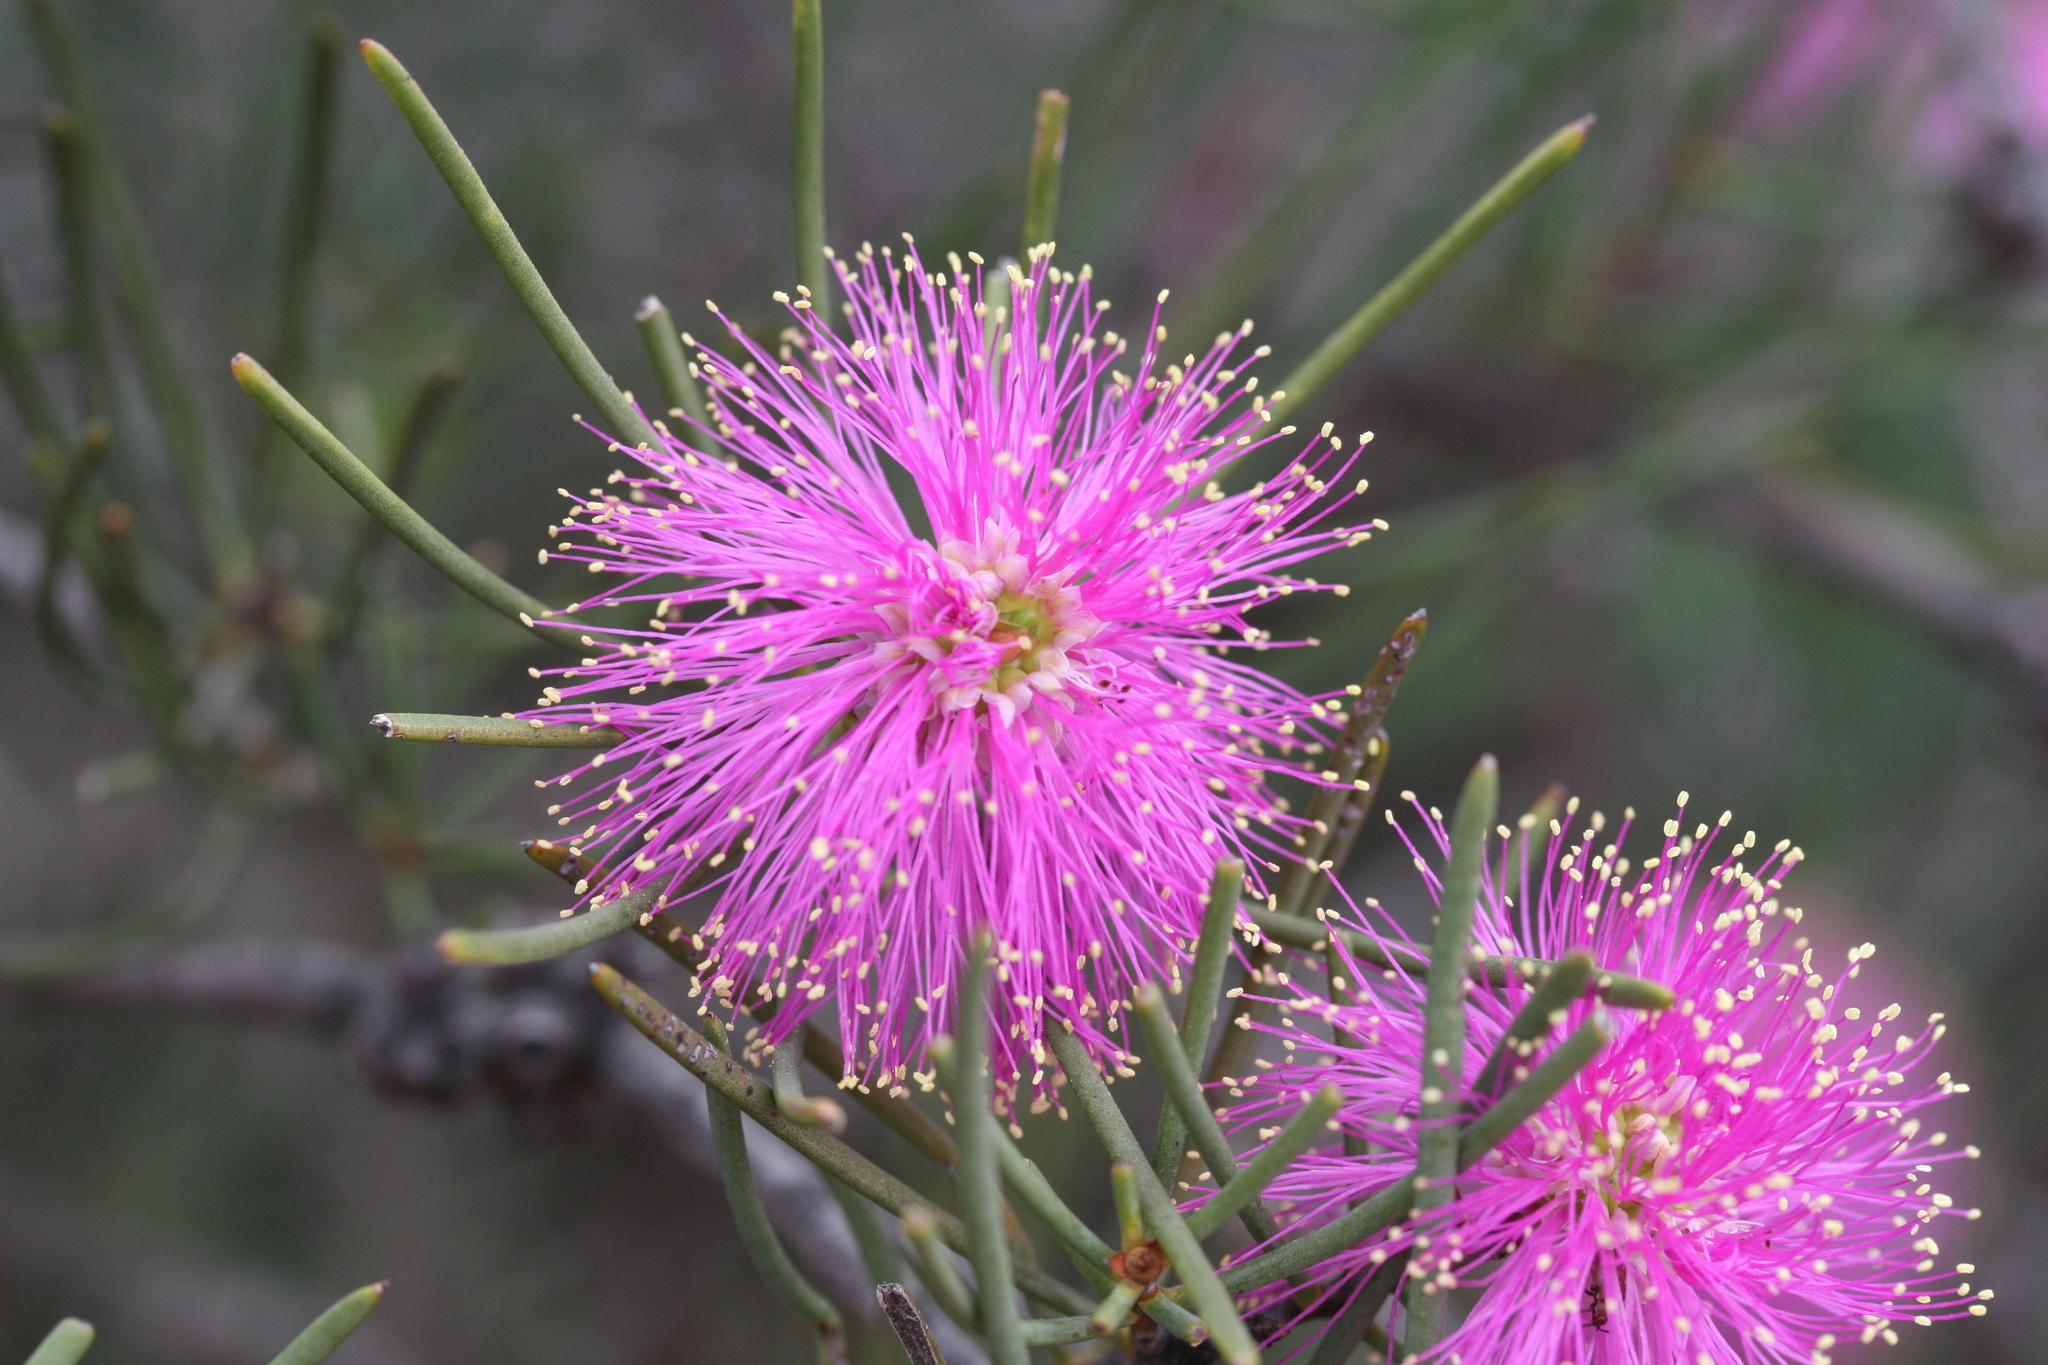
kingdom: Plantae
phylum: Tracheophyta
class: Magnoliopsida
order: Myrtales
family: Myrtaceae
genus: Melaleuca
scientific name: Melaleuca nematophylla
